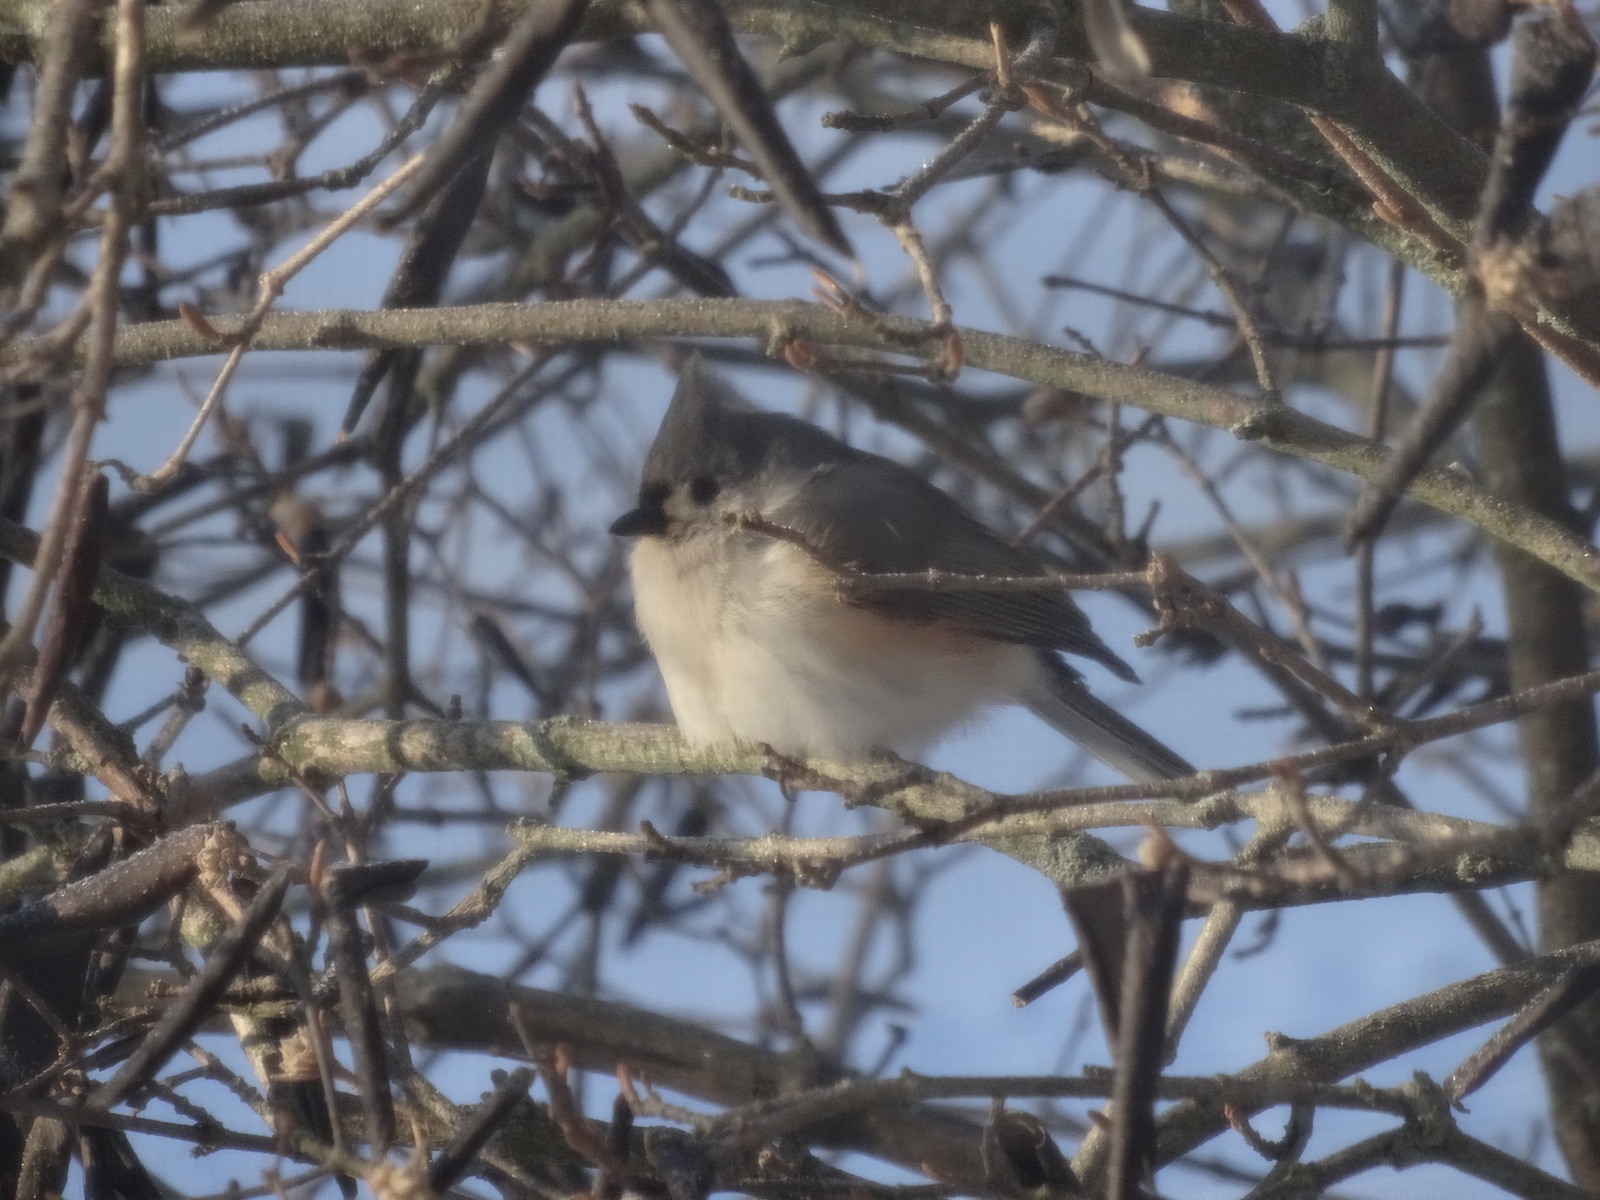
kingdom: Animalia
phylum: Chordata
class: Aves
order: Passeriformes
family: Paridae
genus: Baeolophus
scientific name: Baeolophus bicolor
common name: Tufted titmouse
